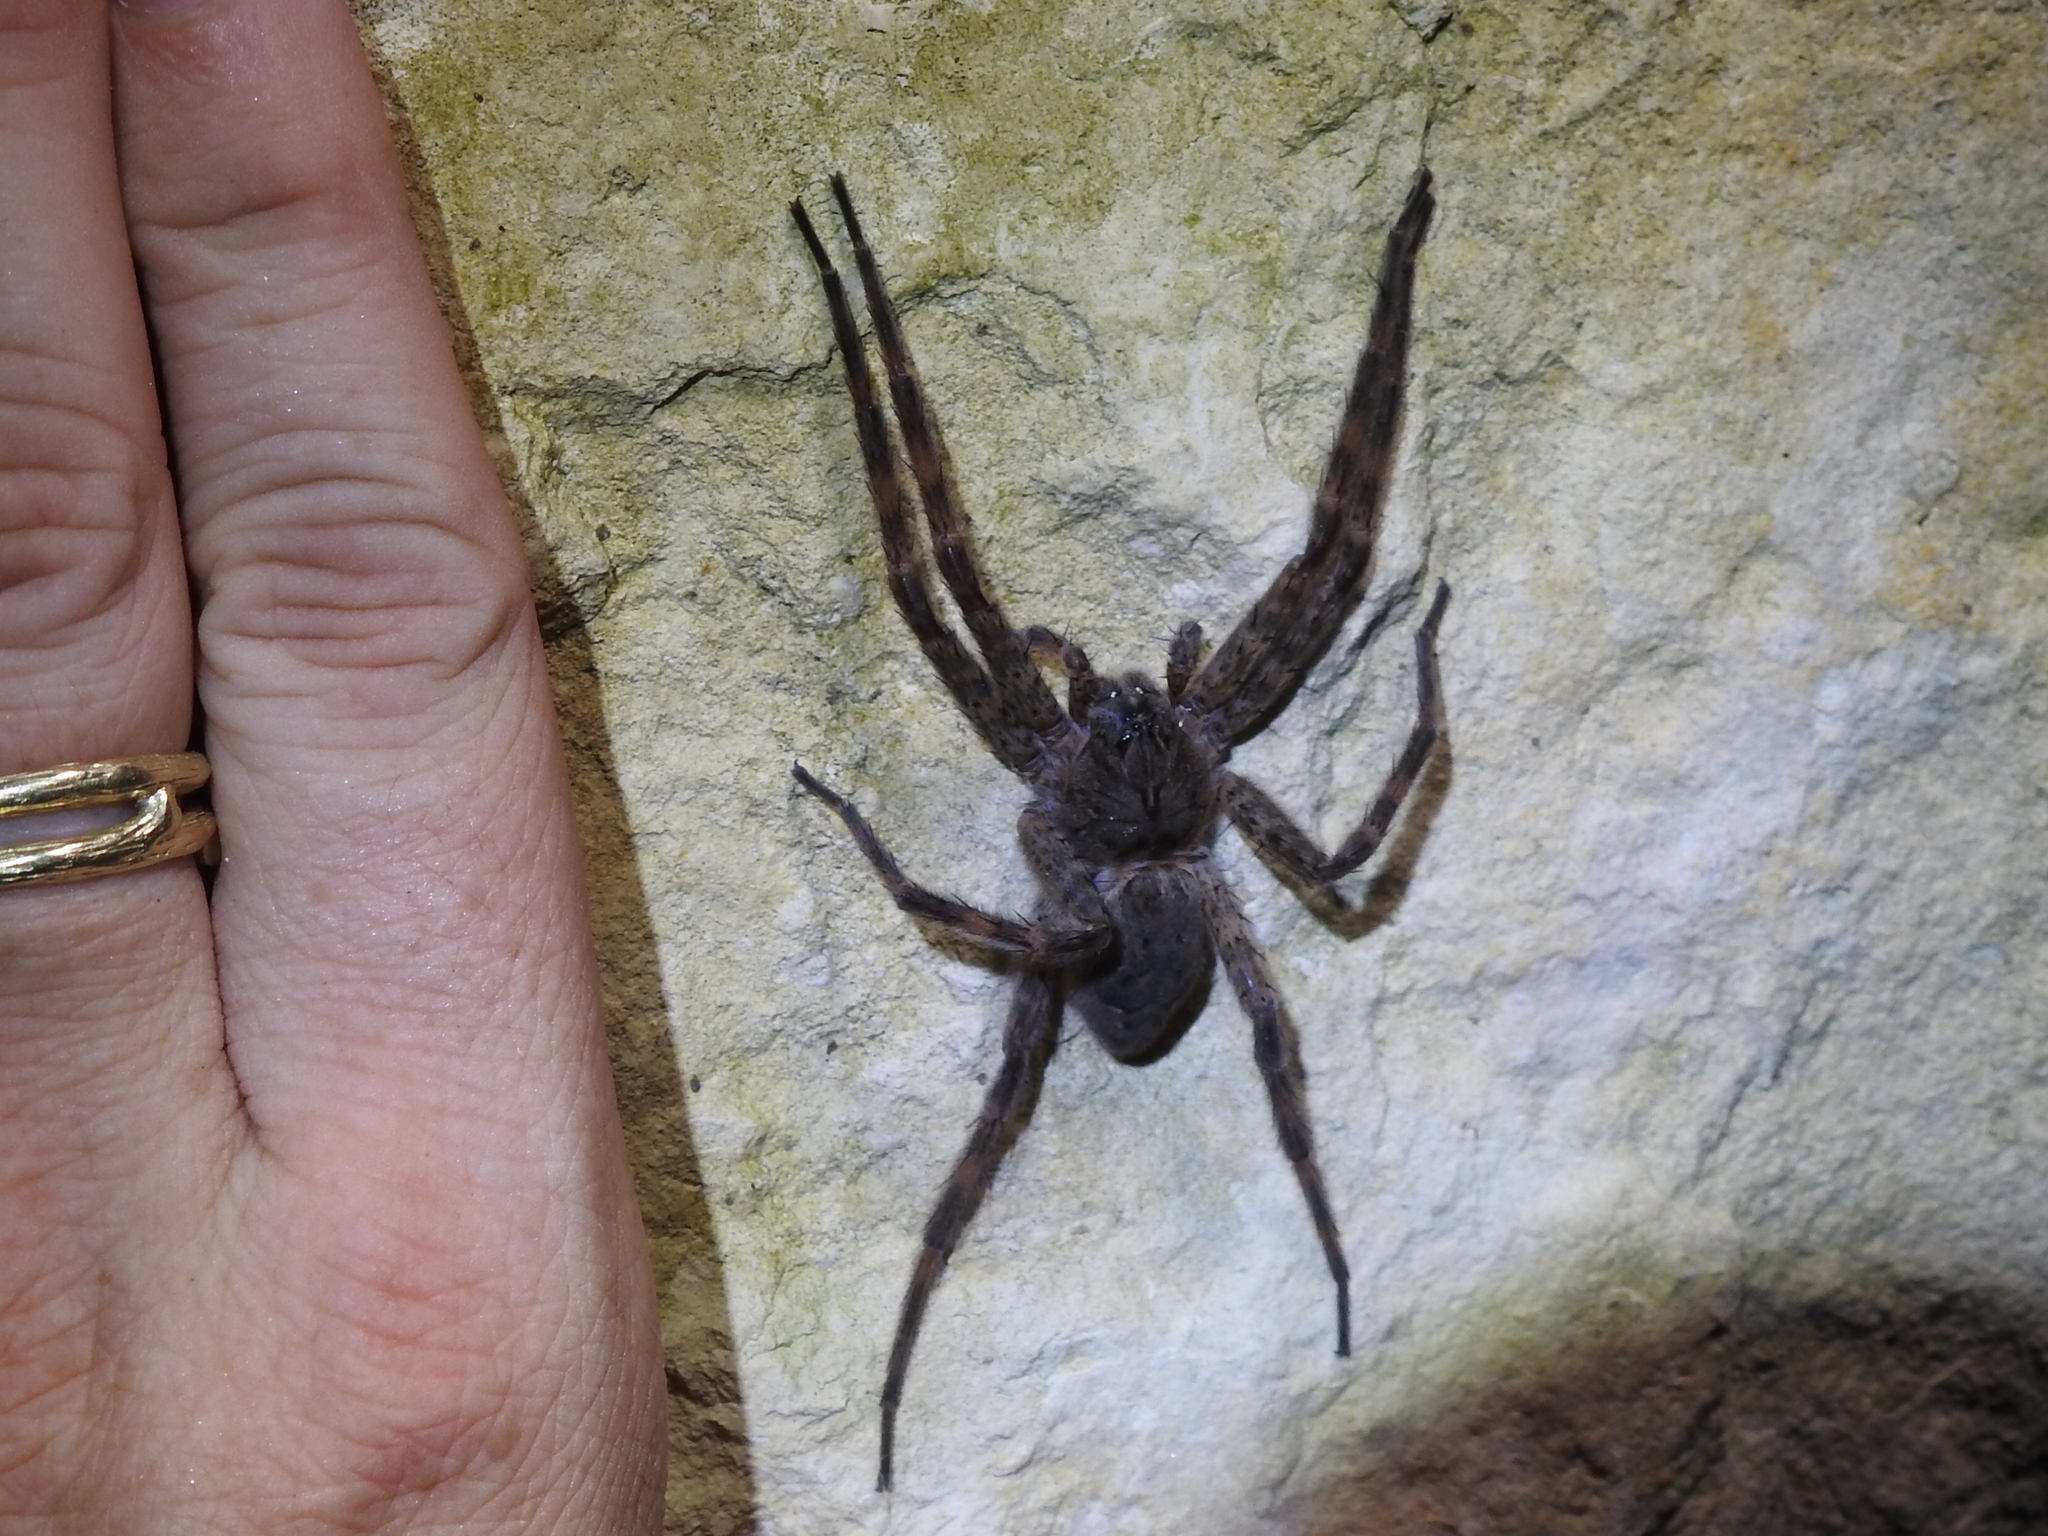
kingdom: Animalia
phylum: Arthropoda
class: Arachnida
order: Araneae
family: Pisauridae
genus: Dolomedes
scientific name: Dolomedes tenebrosus
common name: Dark fishing spider
